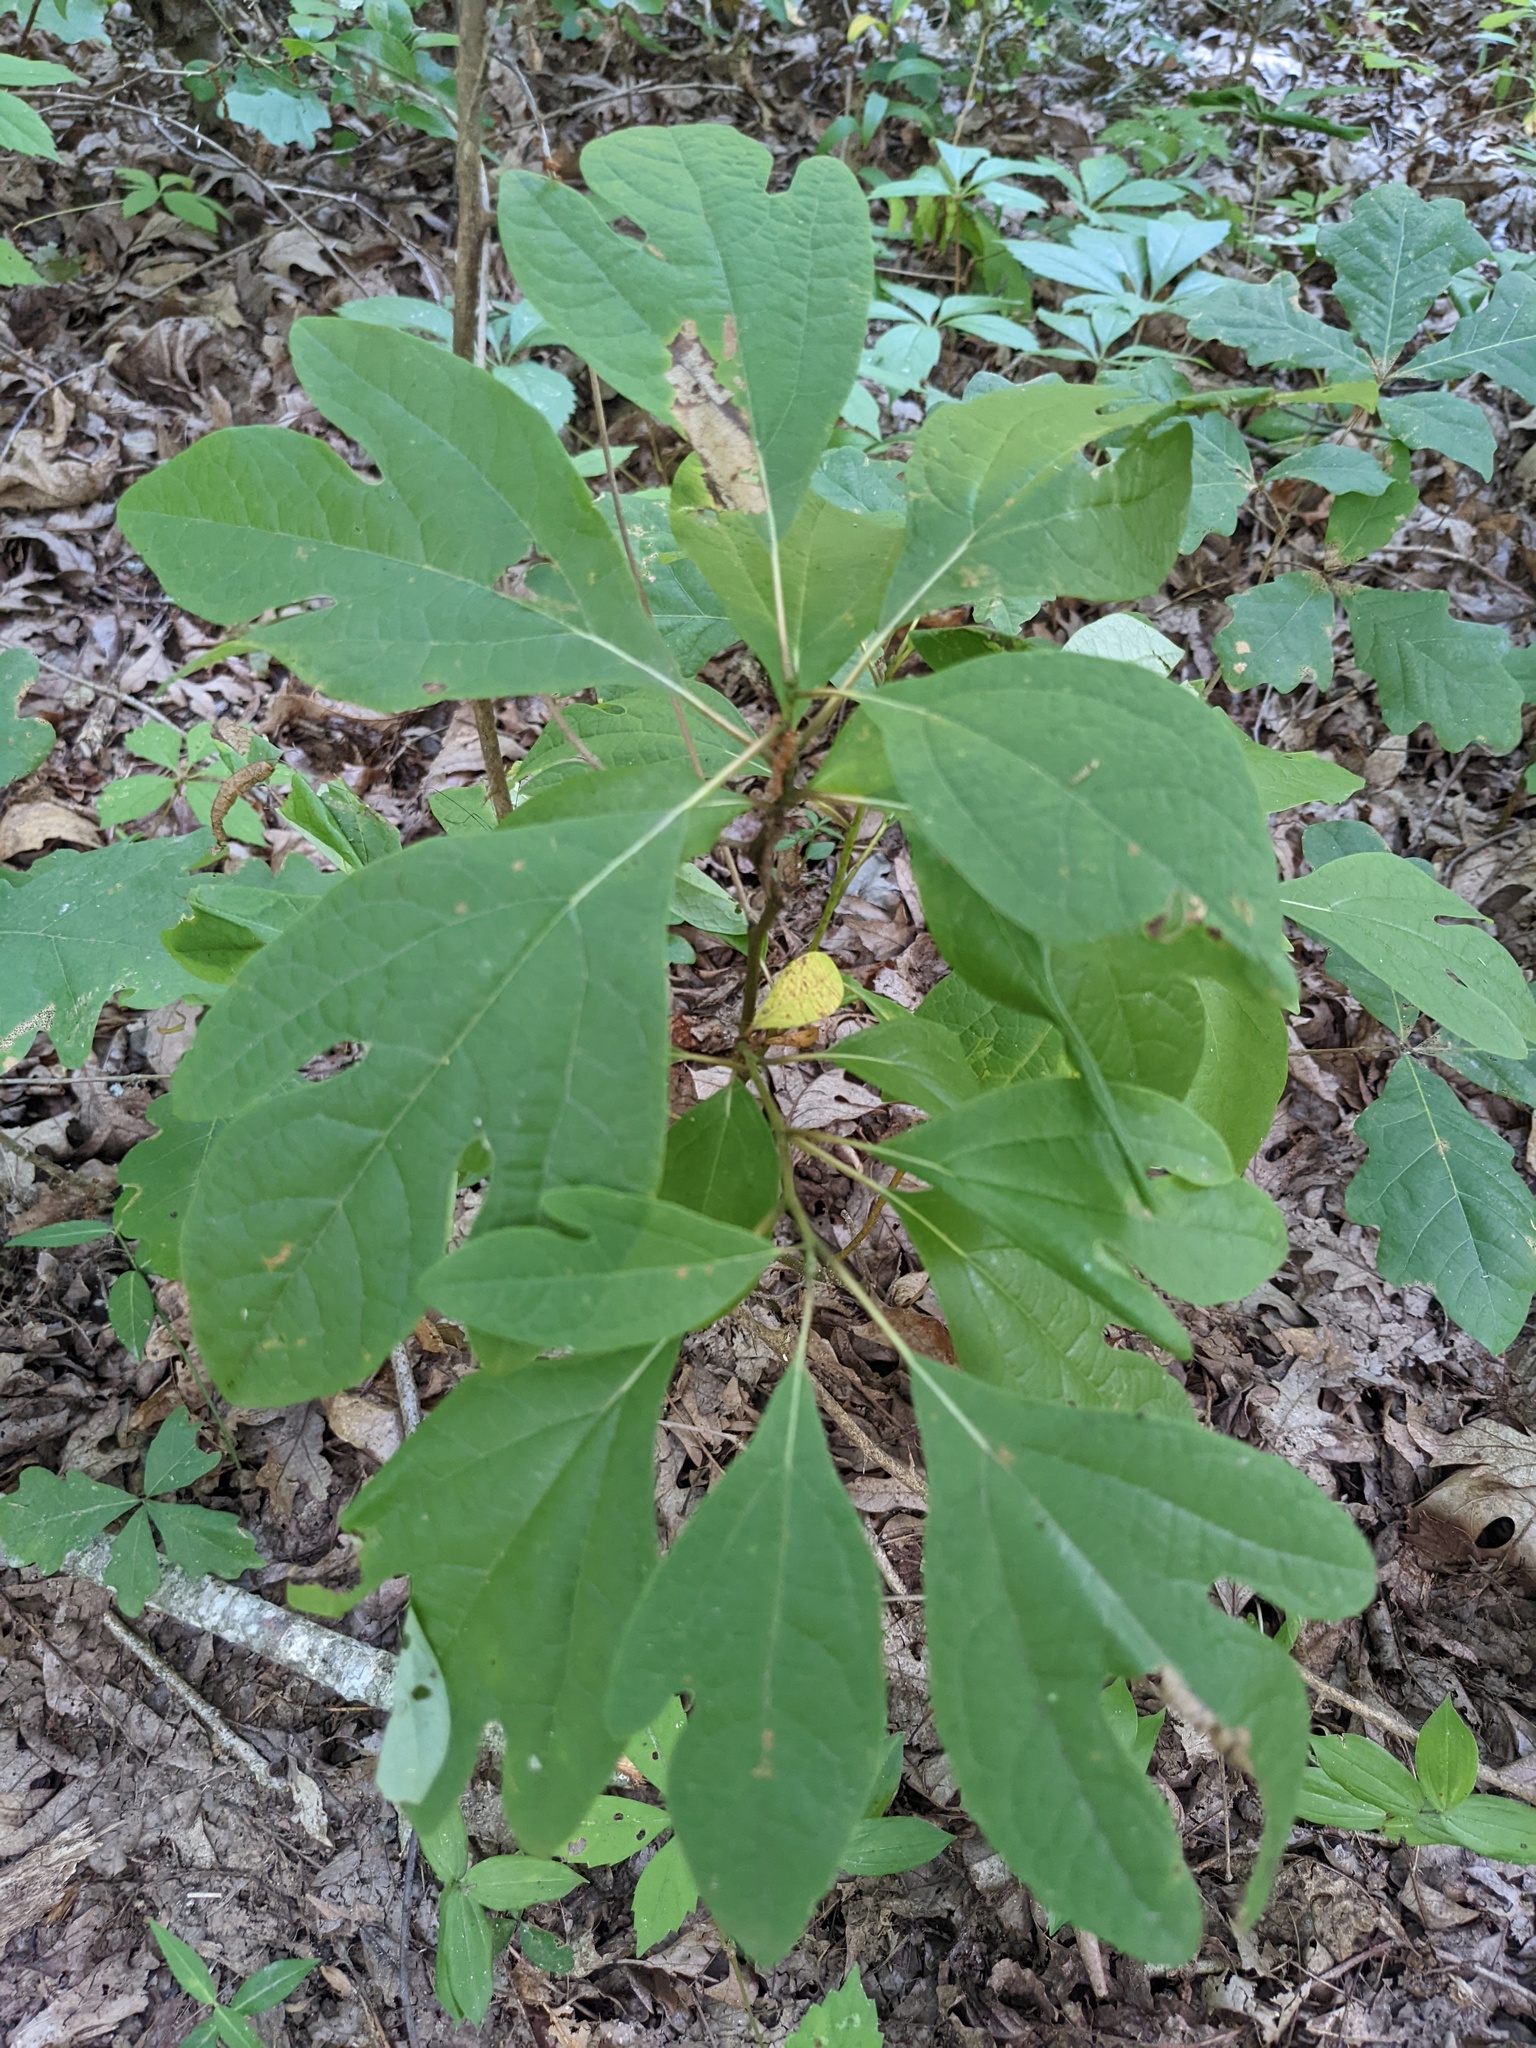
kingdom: Plantae
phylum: Tracheophyta
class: Magnoliopsida
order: Laurales
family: Lauraceae
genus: Sassafras
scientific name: Sassafras albidum
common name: Sassafras
